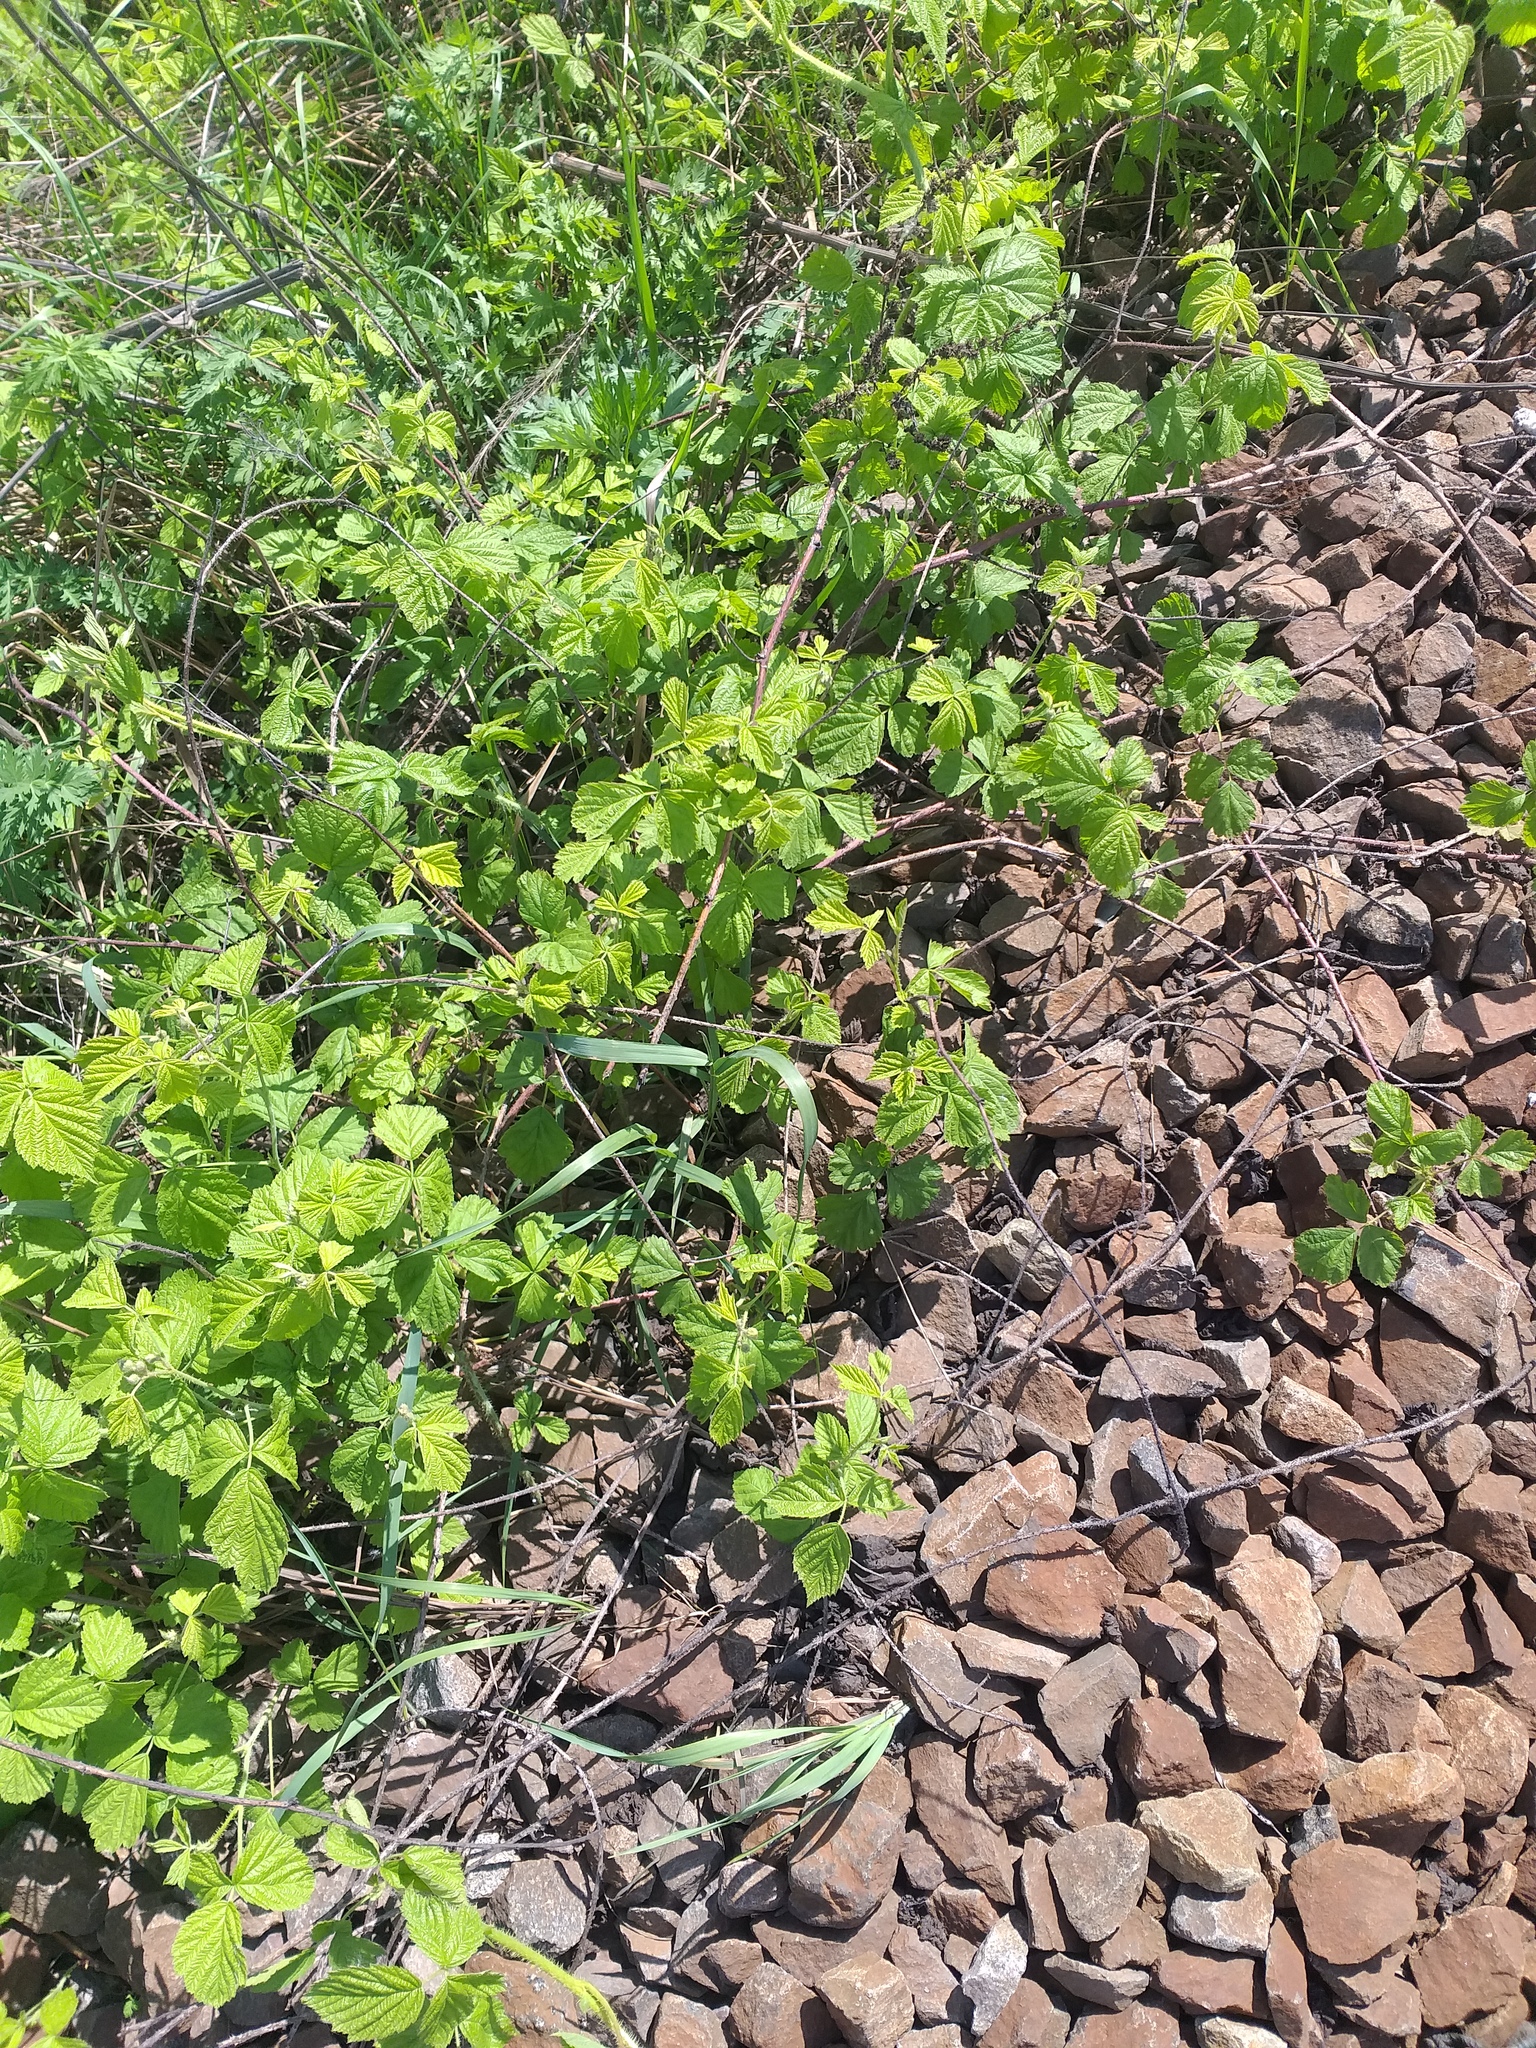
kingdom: Plantae
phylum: Tracheophyta
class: Magnoliopsida
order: Rosales
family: Rosaceae
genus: Rubus
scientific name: Rubus caesius
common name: Dewberry
